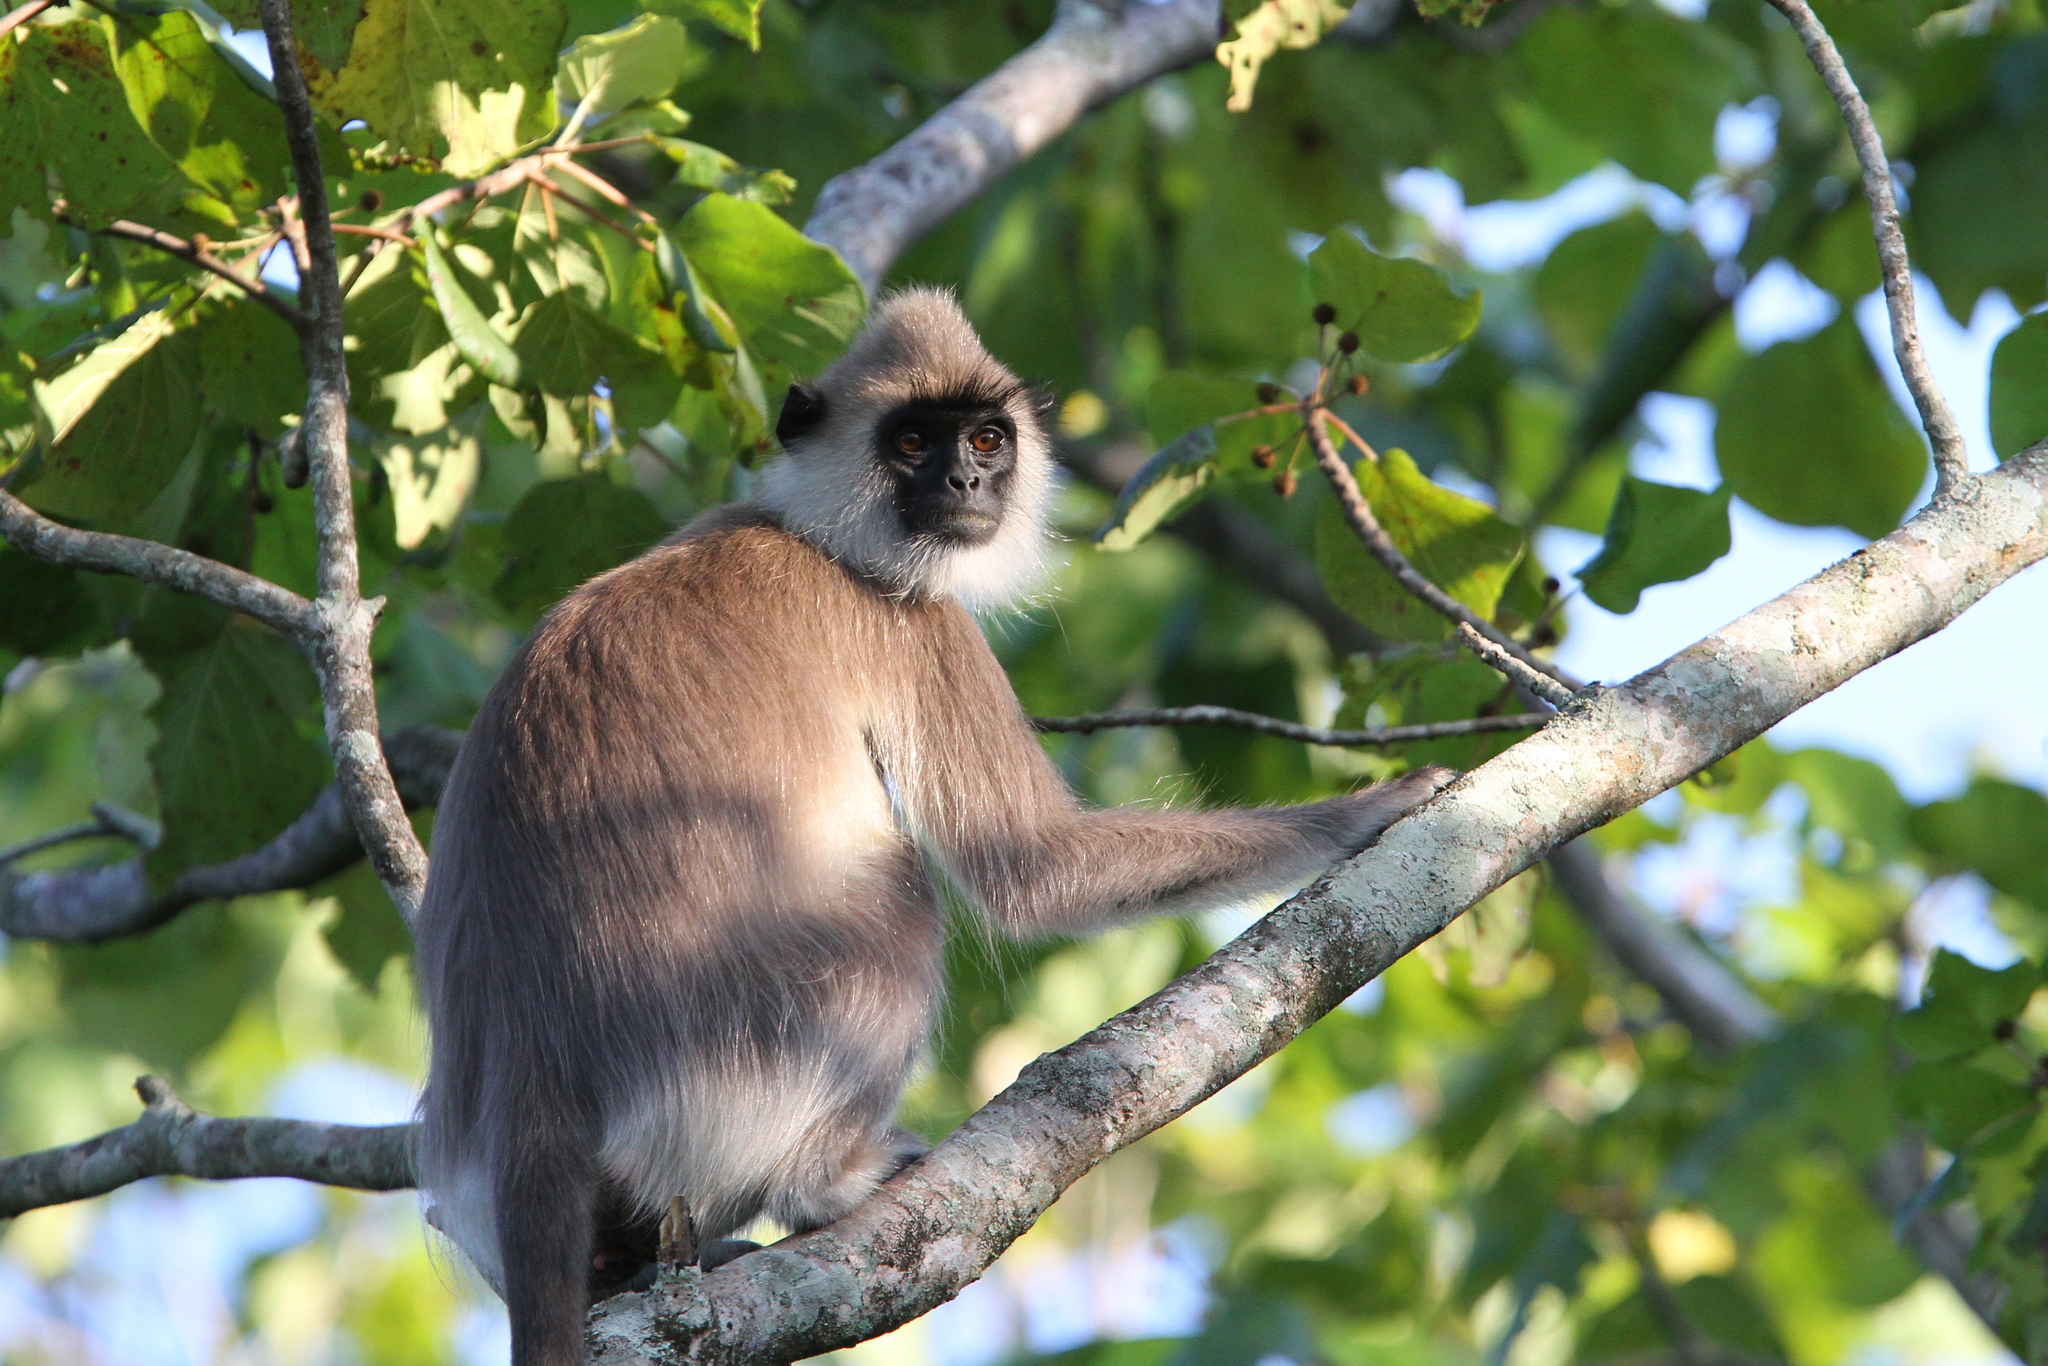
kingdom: Animalia
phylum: Chordata
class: Mammalia
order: Primates
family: Cercopithecidae
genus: Semnopithecus
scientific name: Semnopithecus priam
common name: Tufted gray langur
